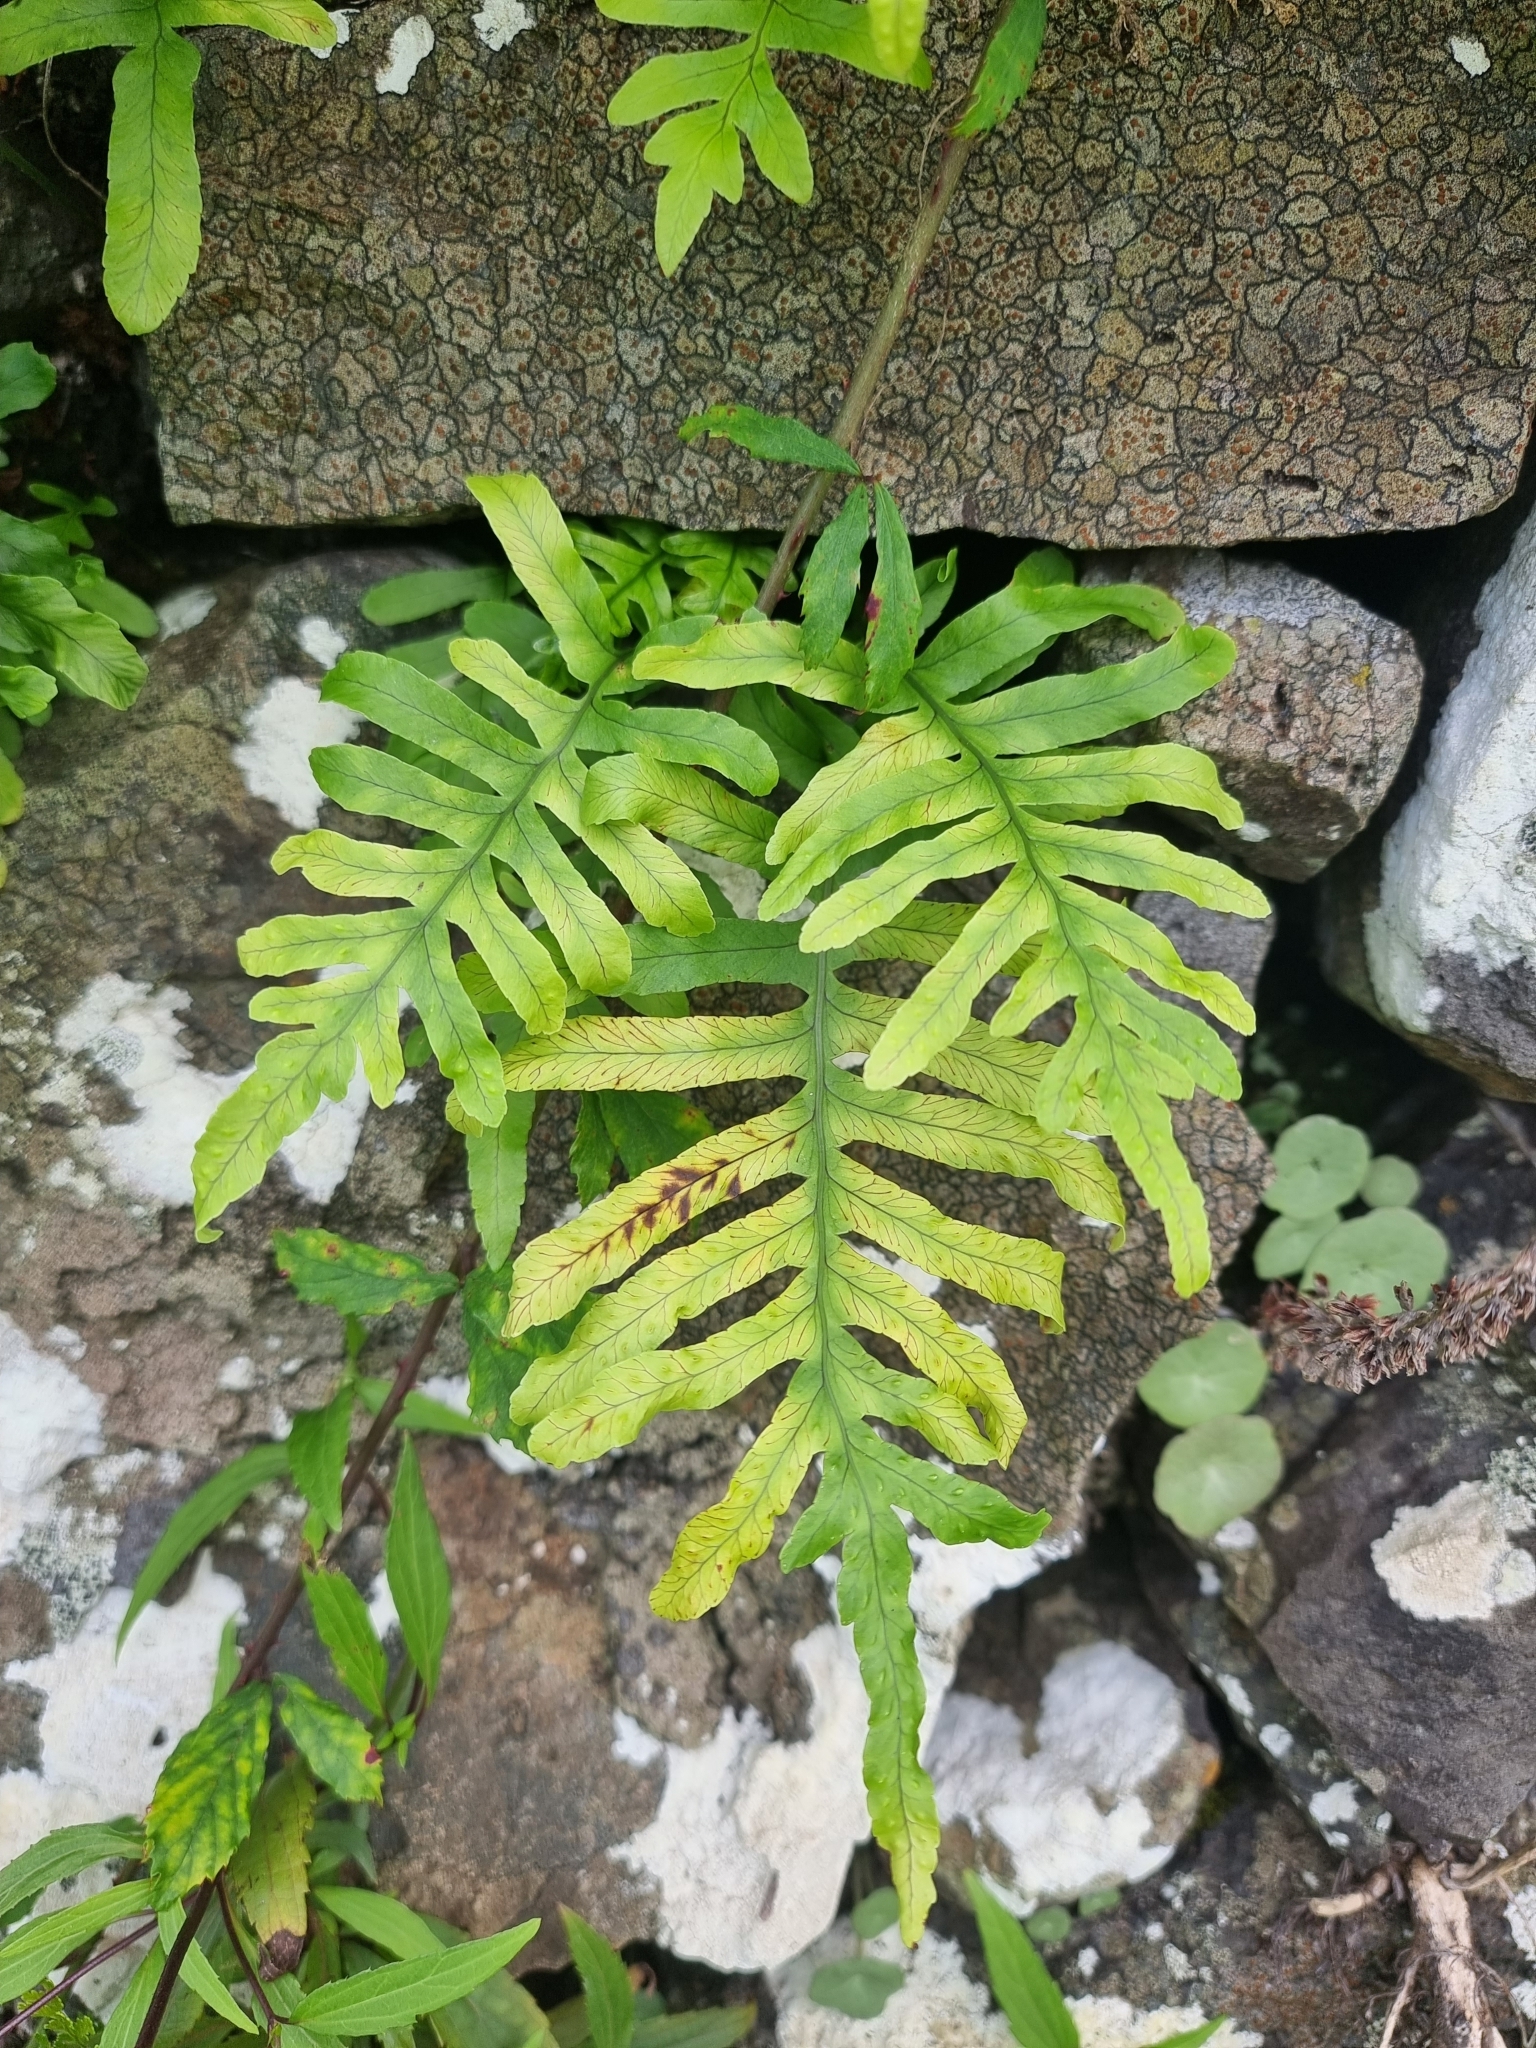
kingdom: Plantae
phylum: Tracheophyta
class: Polypodiopsida
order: Polypodiales
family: Polypodiaceae
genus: Polypodium
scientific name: Polypodium macaronesicum
